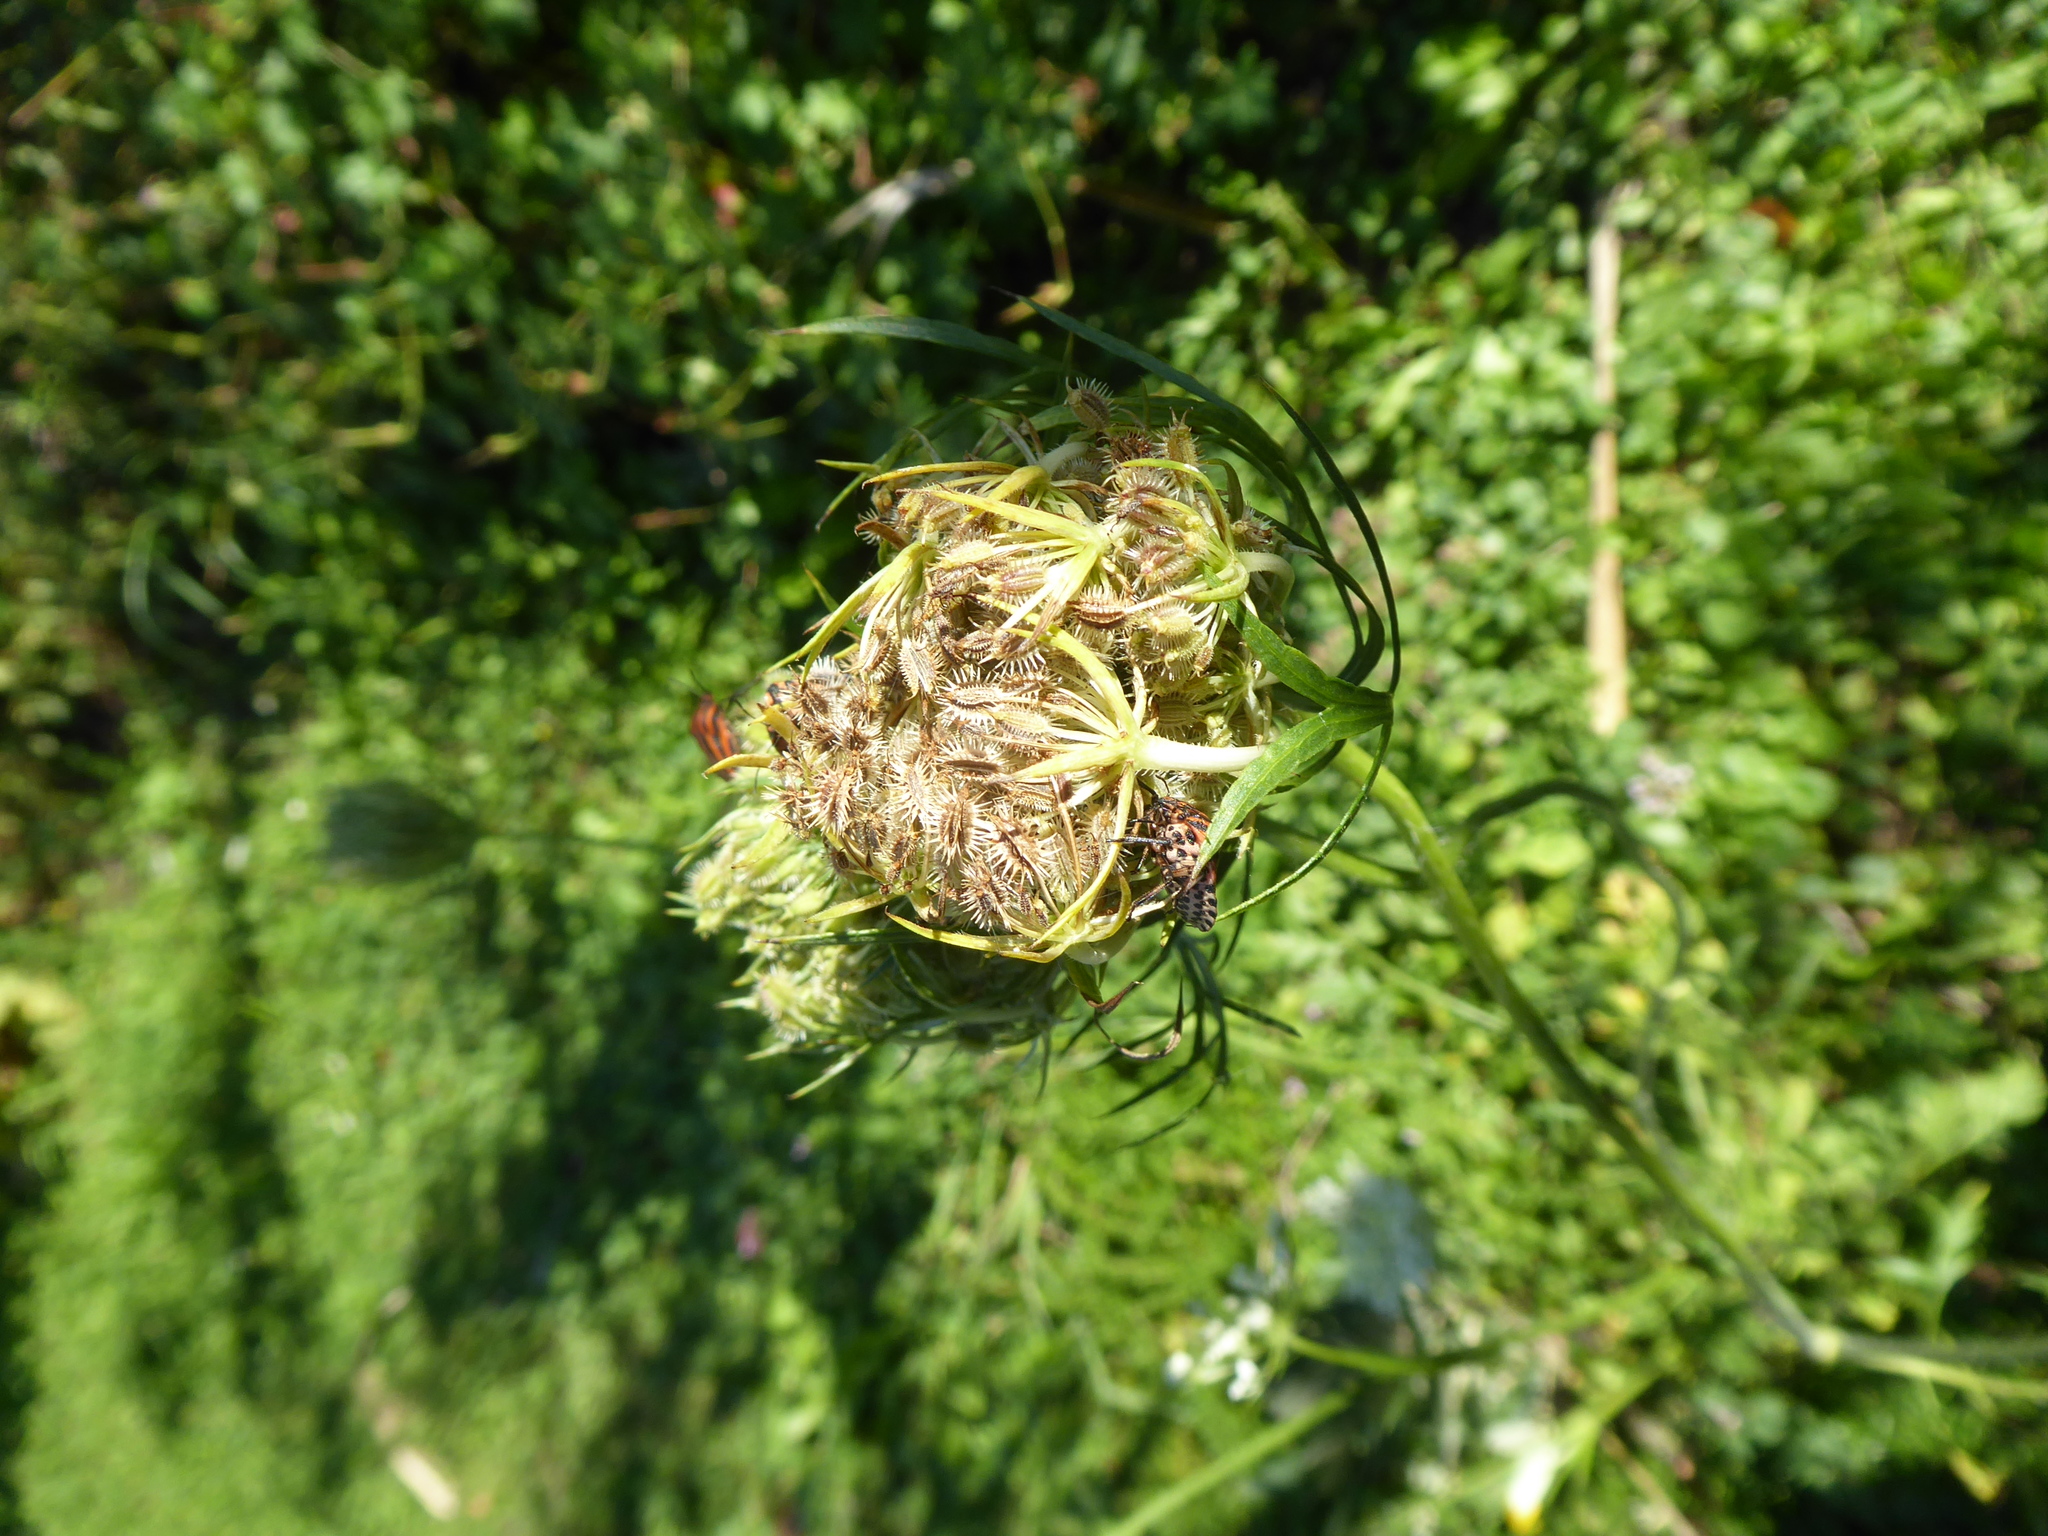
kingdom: Plantae
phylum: Tracheophyta
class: Magnoliopsida
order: Apiales
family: Apiaceae
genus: Daucus
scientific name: Daucus carota
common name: Wild carrot
